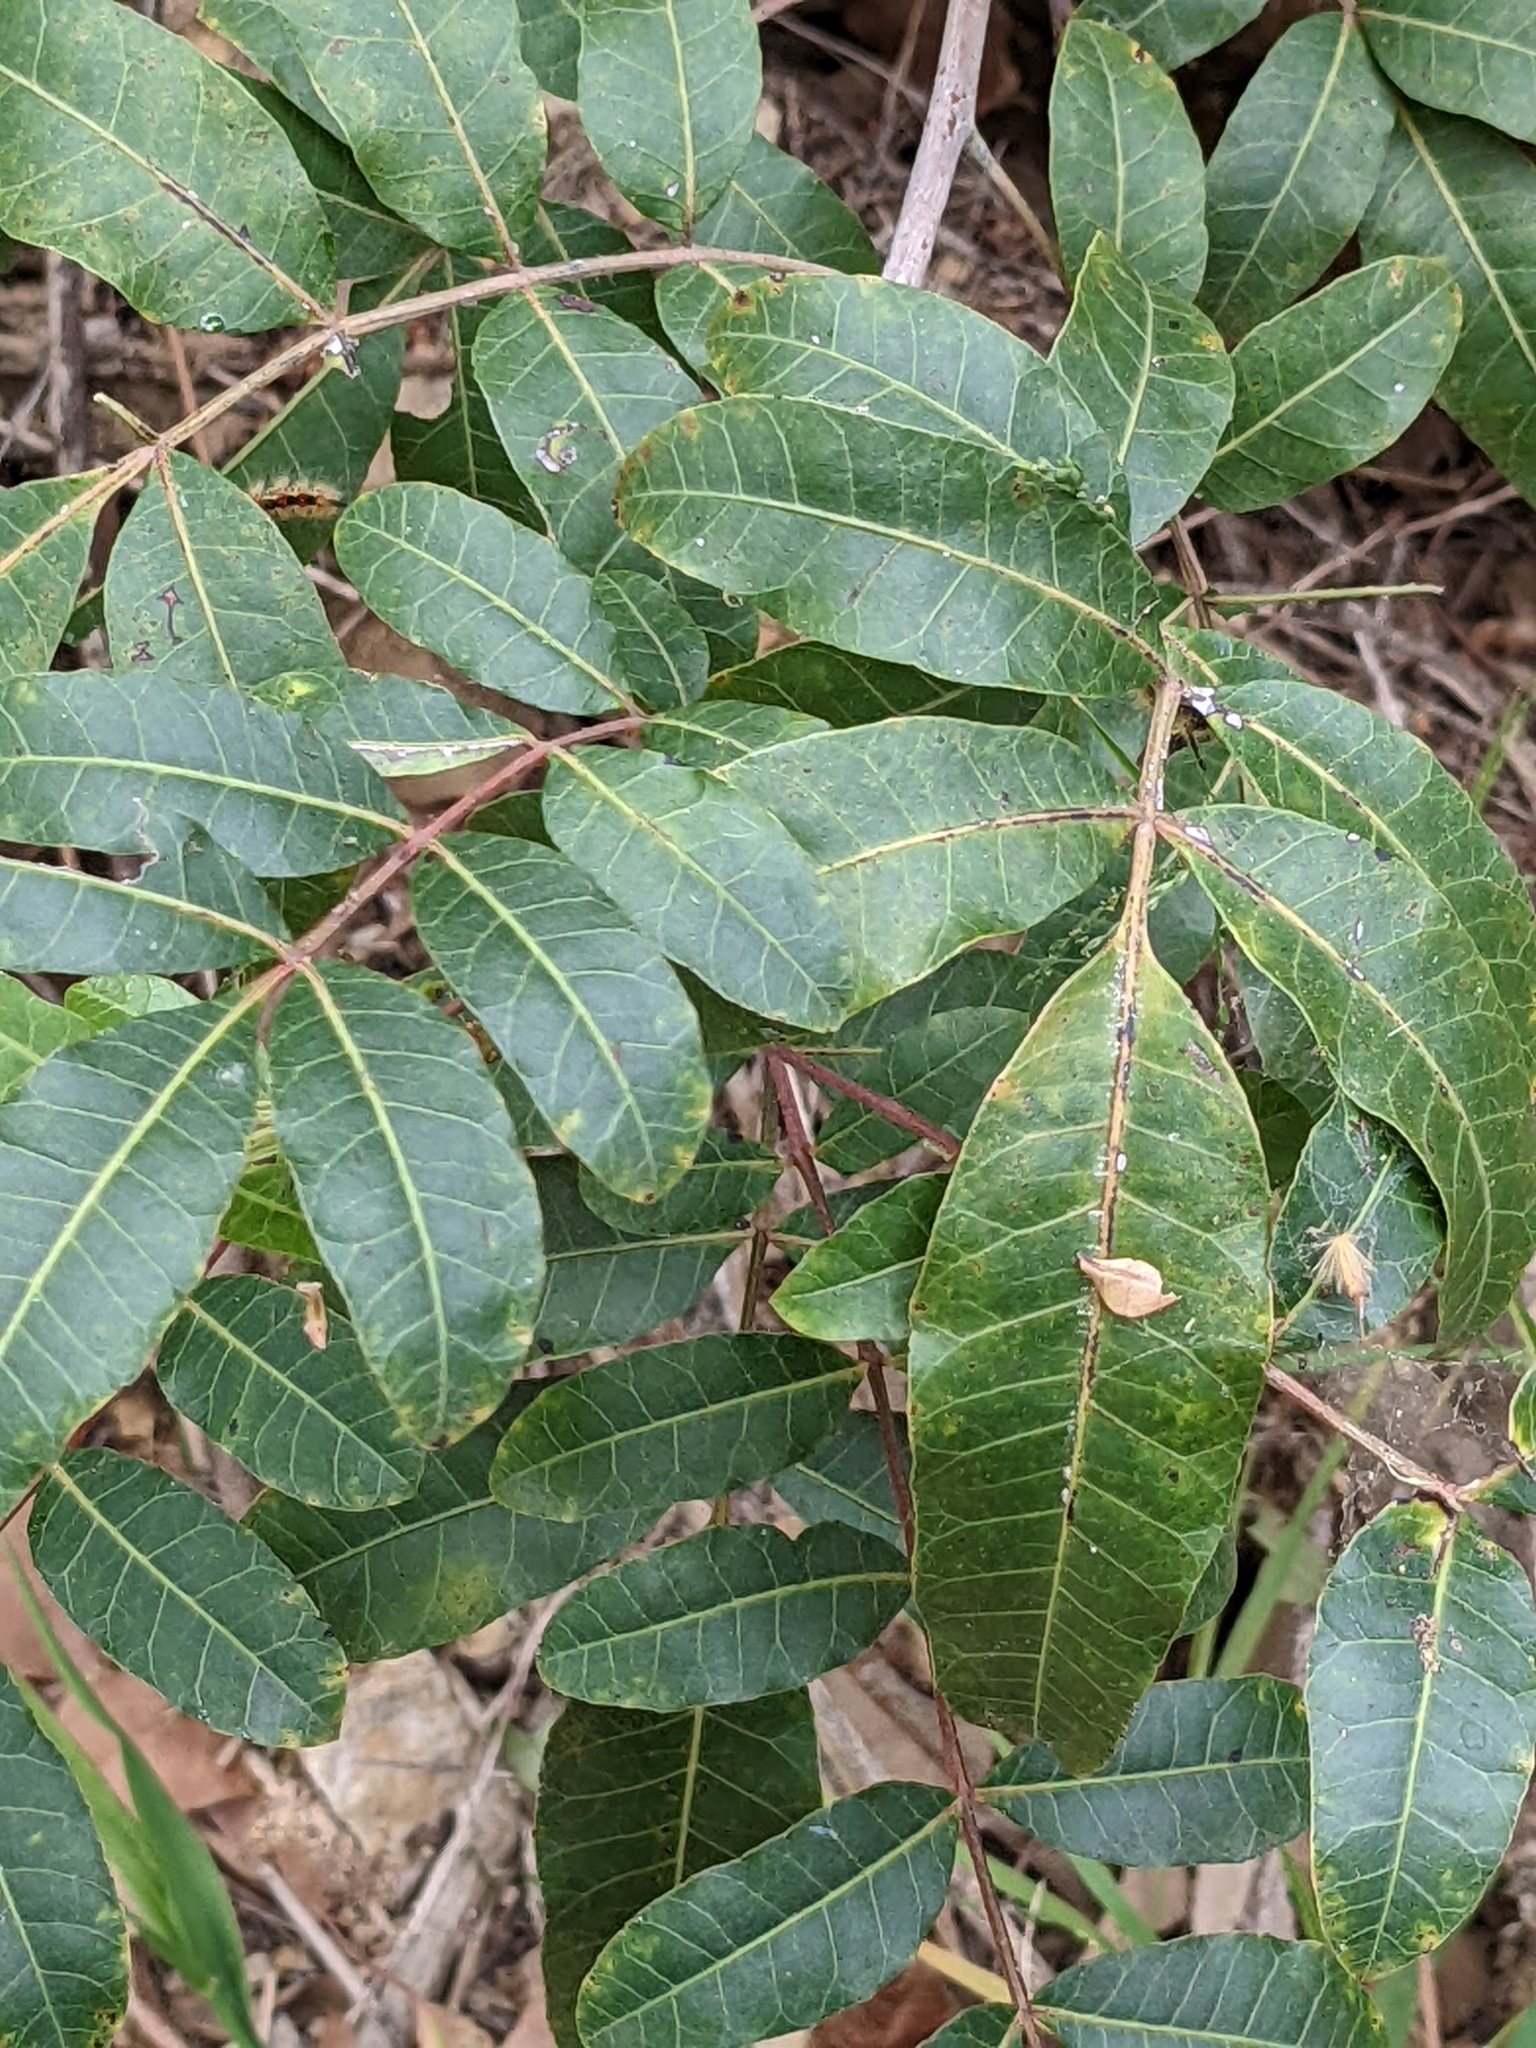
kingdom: Plantae
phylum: Tracheophyta
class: Magnoliopsida
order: Sapindales
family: Anacardiaceae
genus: Schinus
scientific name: Schinus terebinthifolia
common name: Brazilian peppertree
